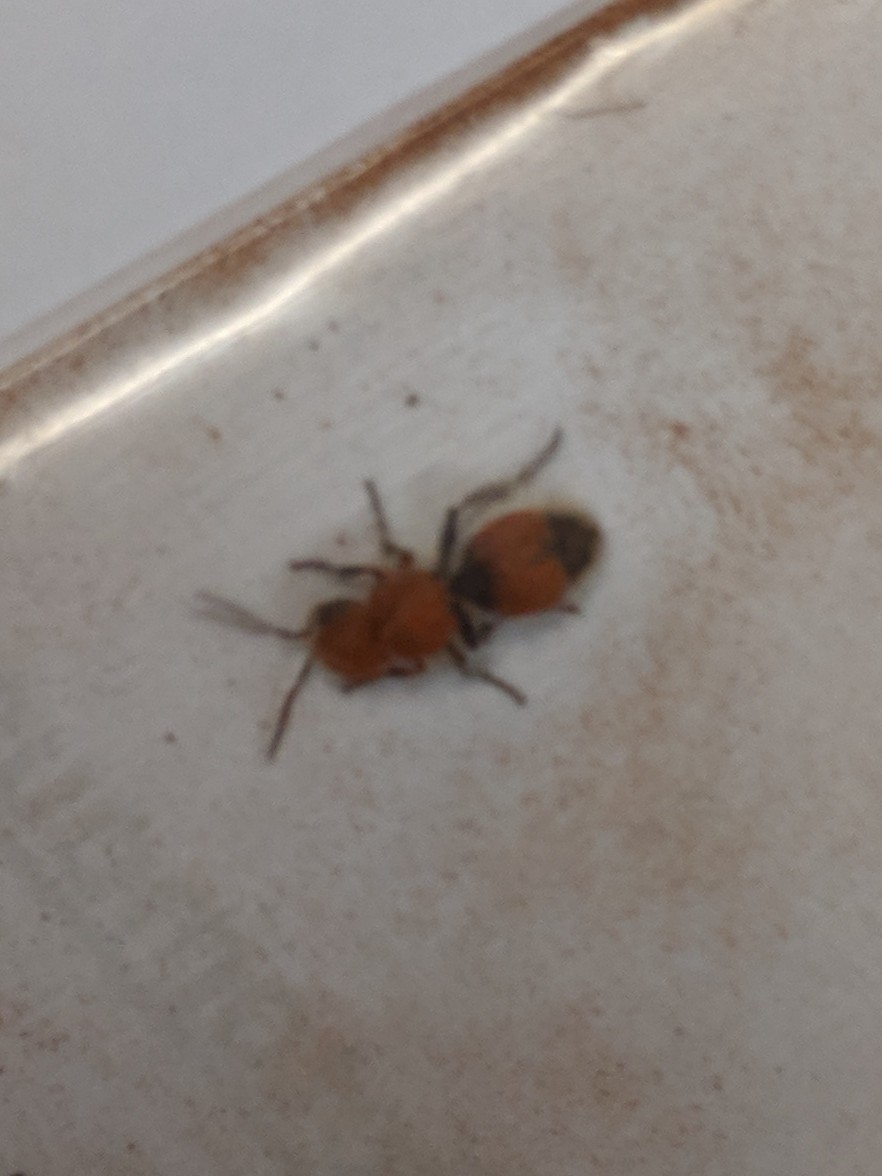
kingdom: Animalia
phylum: Arthropoda
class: Insecta
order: Hymenoptera
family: Mutillidae
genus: Dasymutilla
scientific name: Dasymutilla foxi
